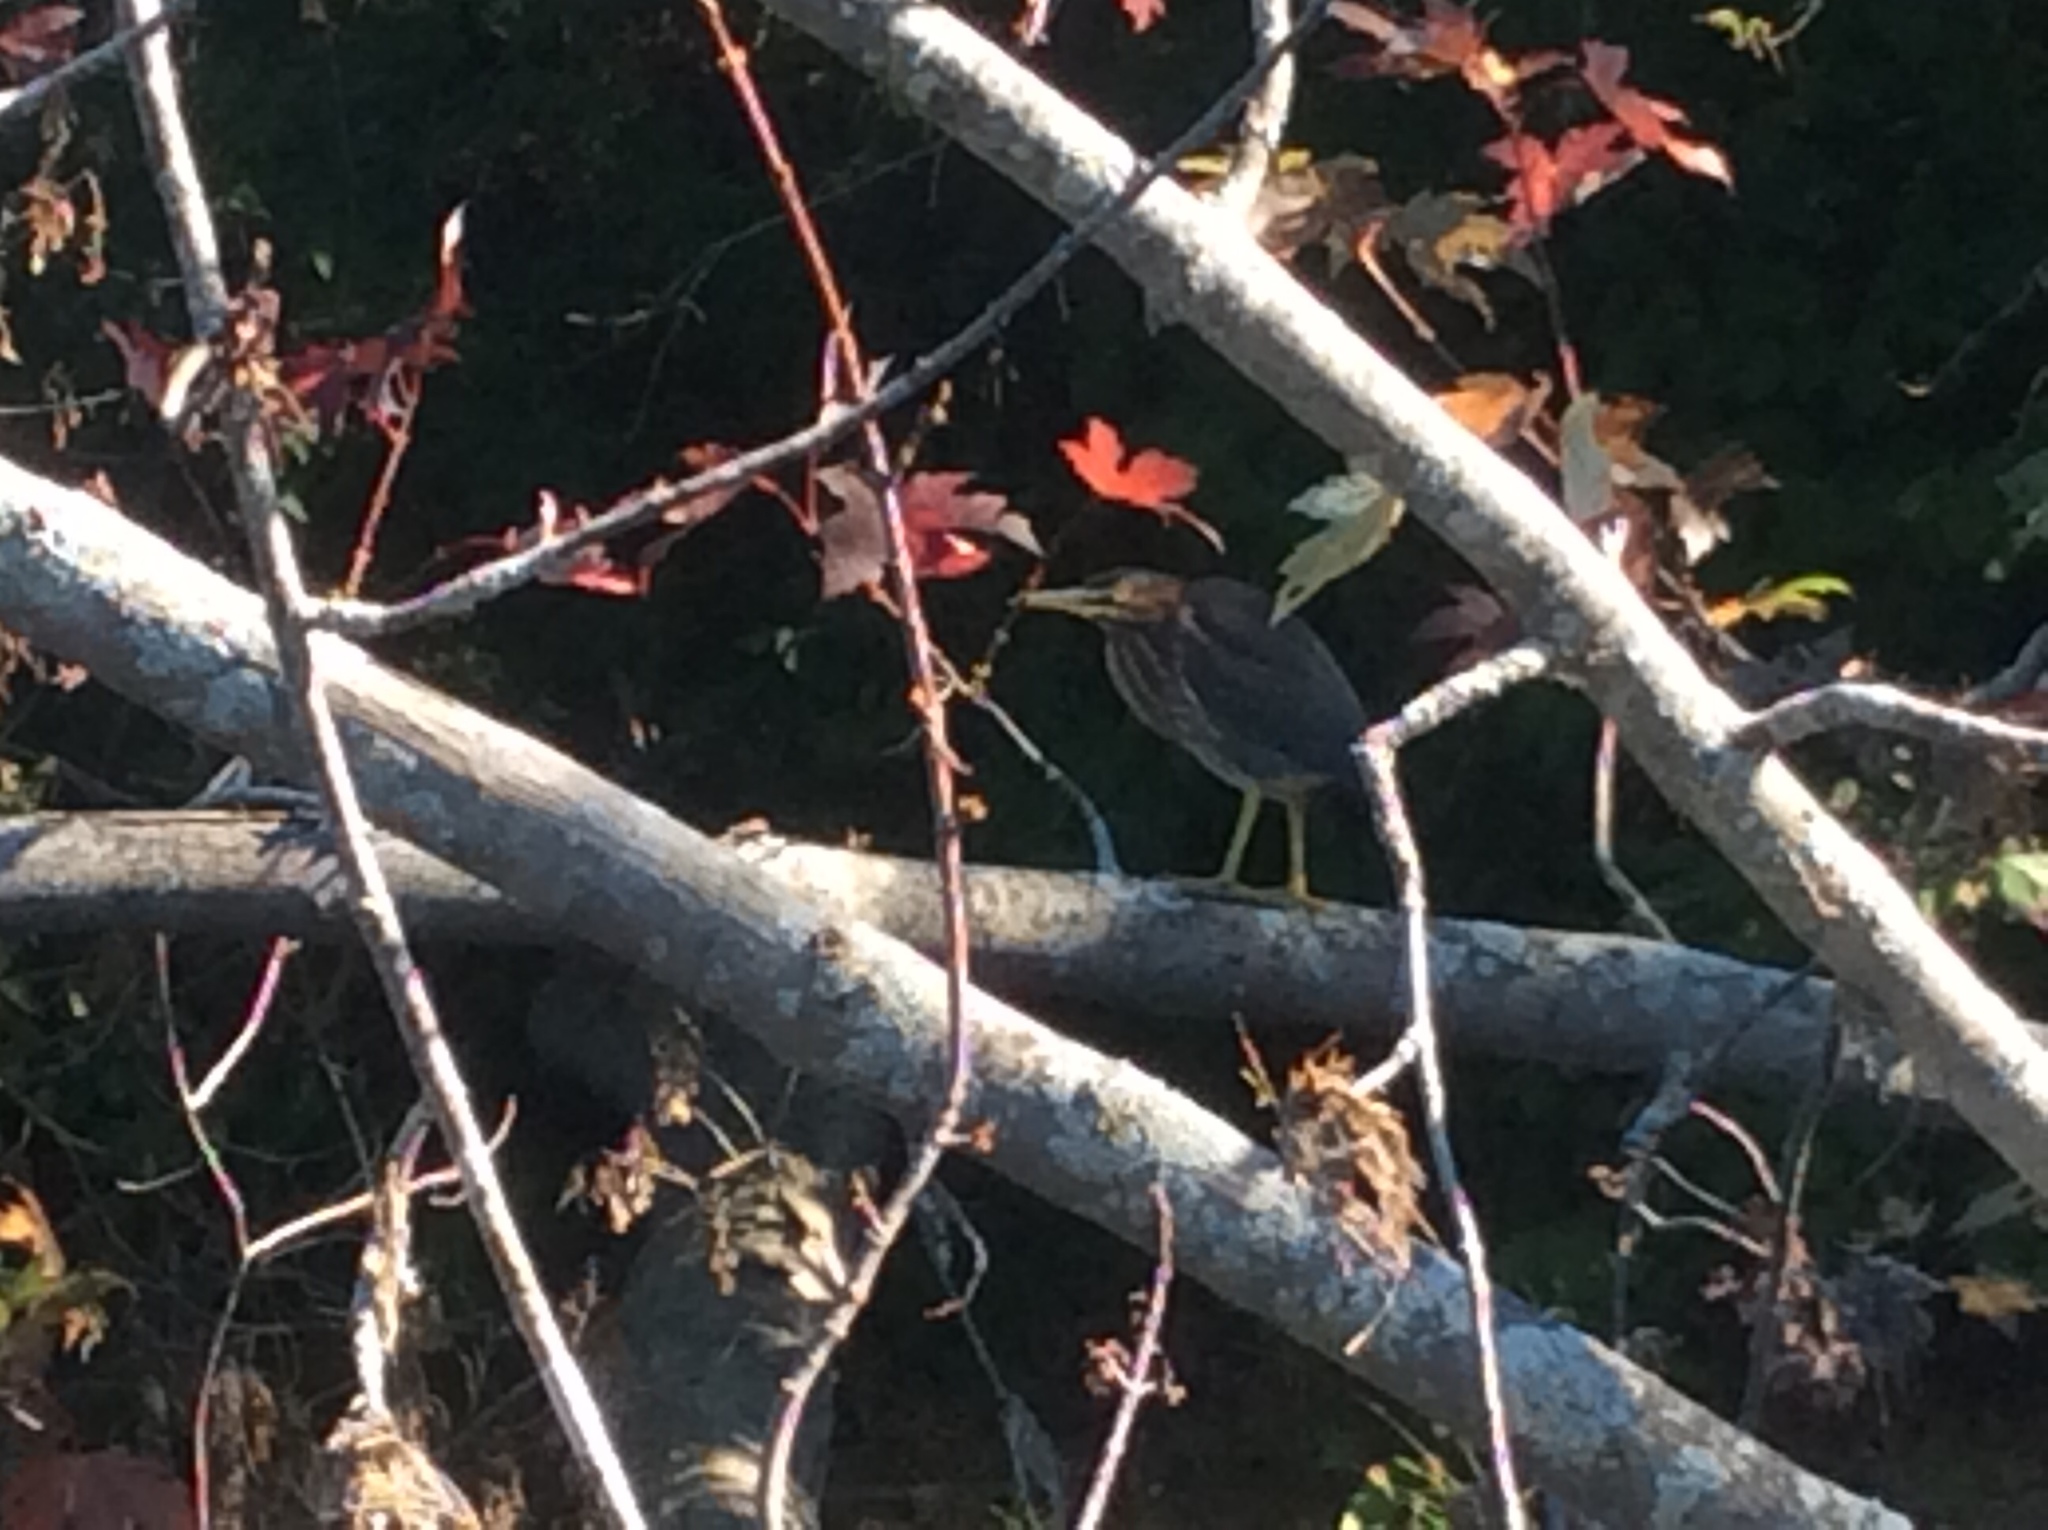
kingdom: Animalia
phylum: Chordata
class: Aves
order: Pelecaniformes
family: Ardeidae
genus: Butorides
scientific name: Butorides virescens
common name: Green heron
